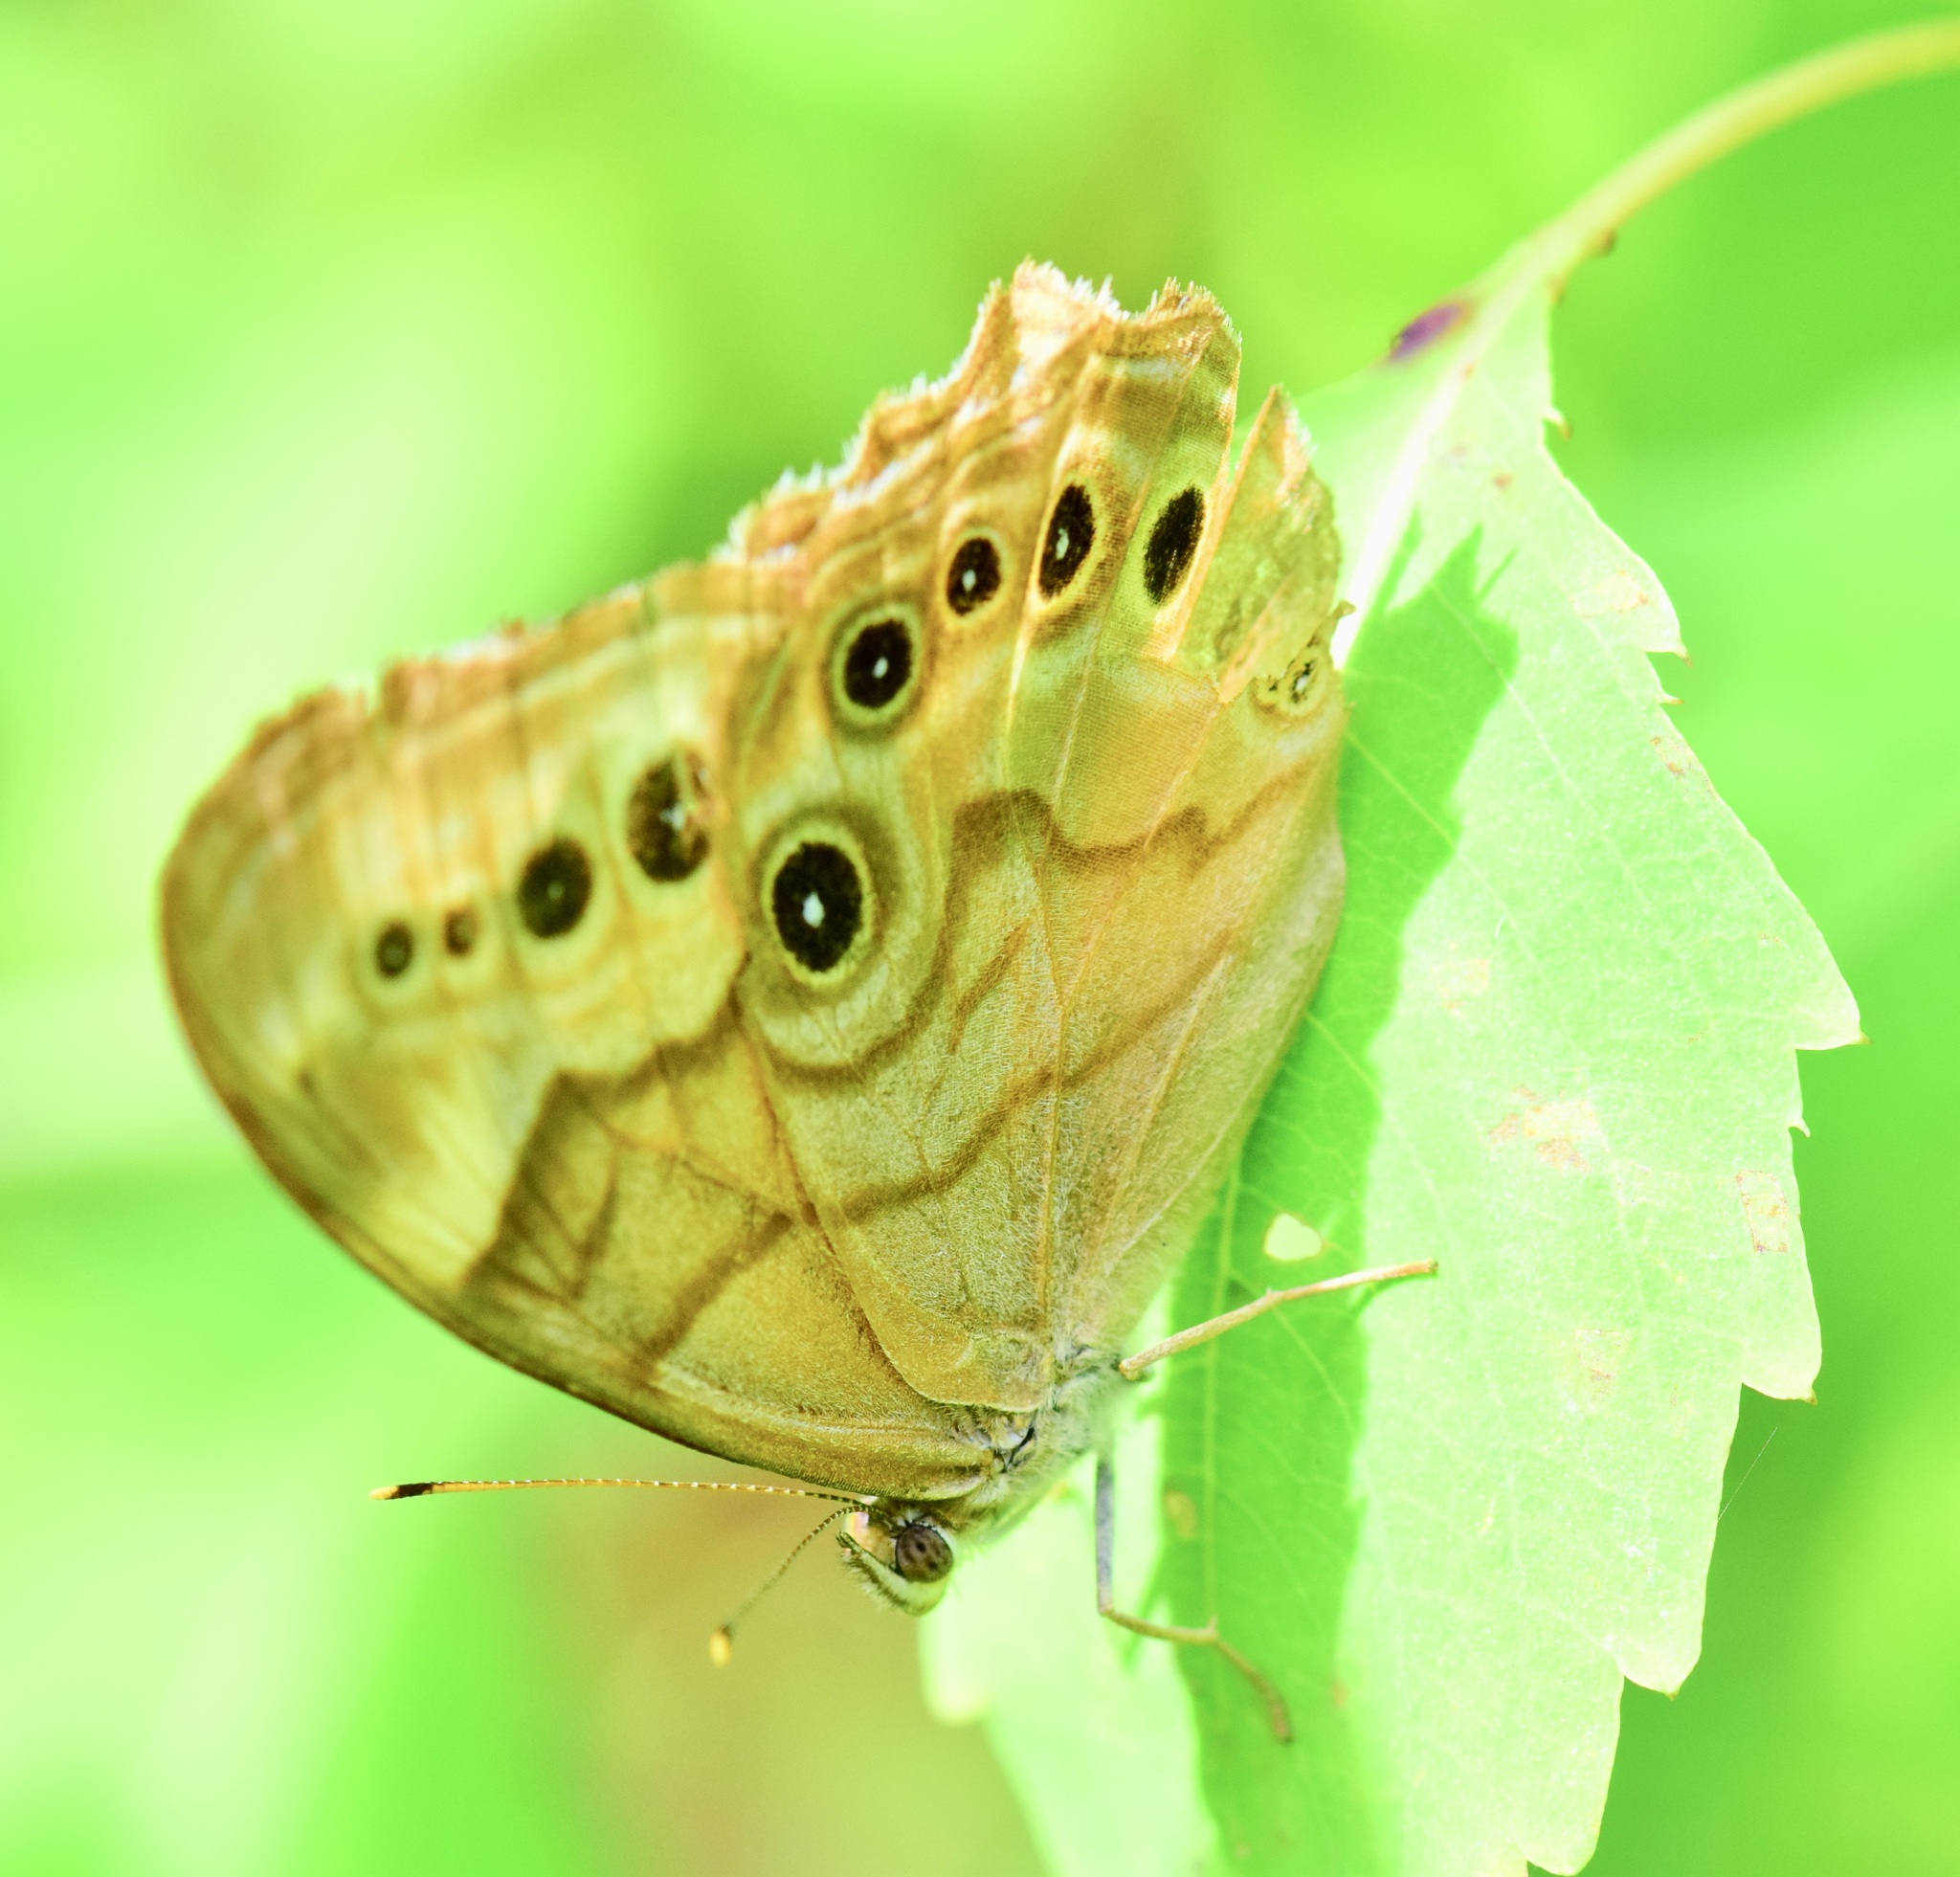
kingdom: Animalia
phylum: Arthropoda
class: Insecta
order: Lepidoptera
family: Nymphalidae
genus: Lethe
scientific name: Lethe anthedon
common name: Northern pearly-eye
